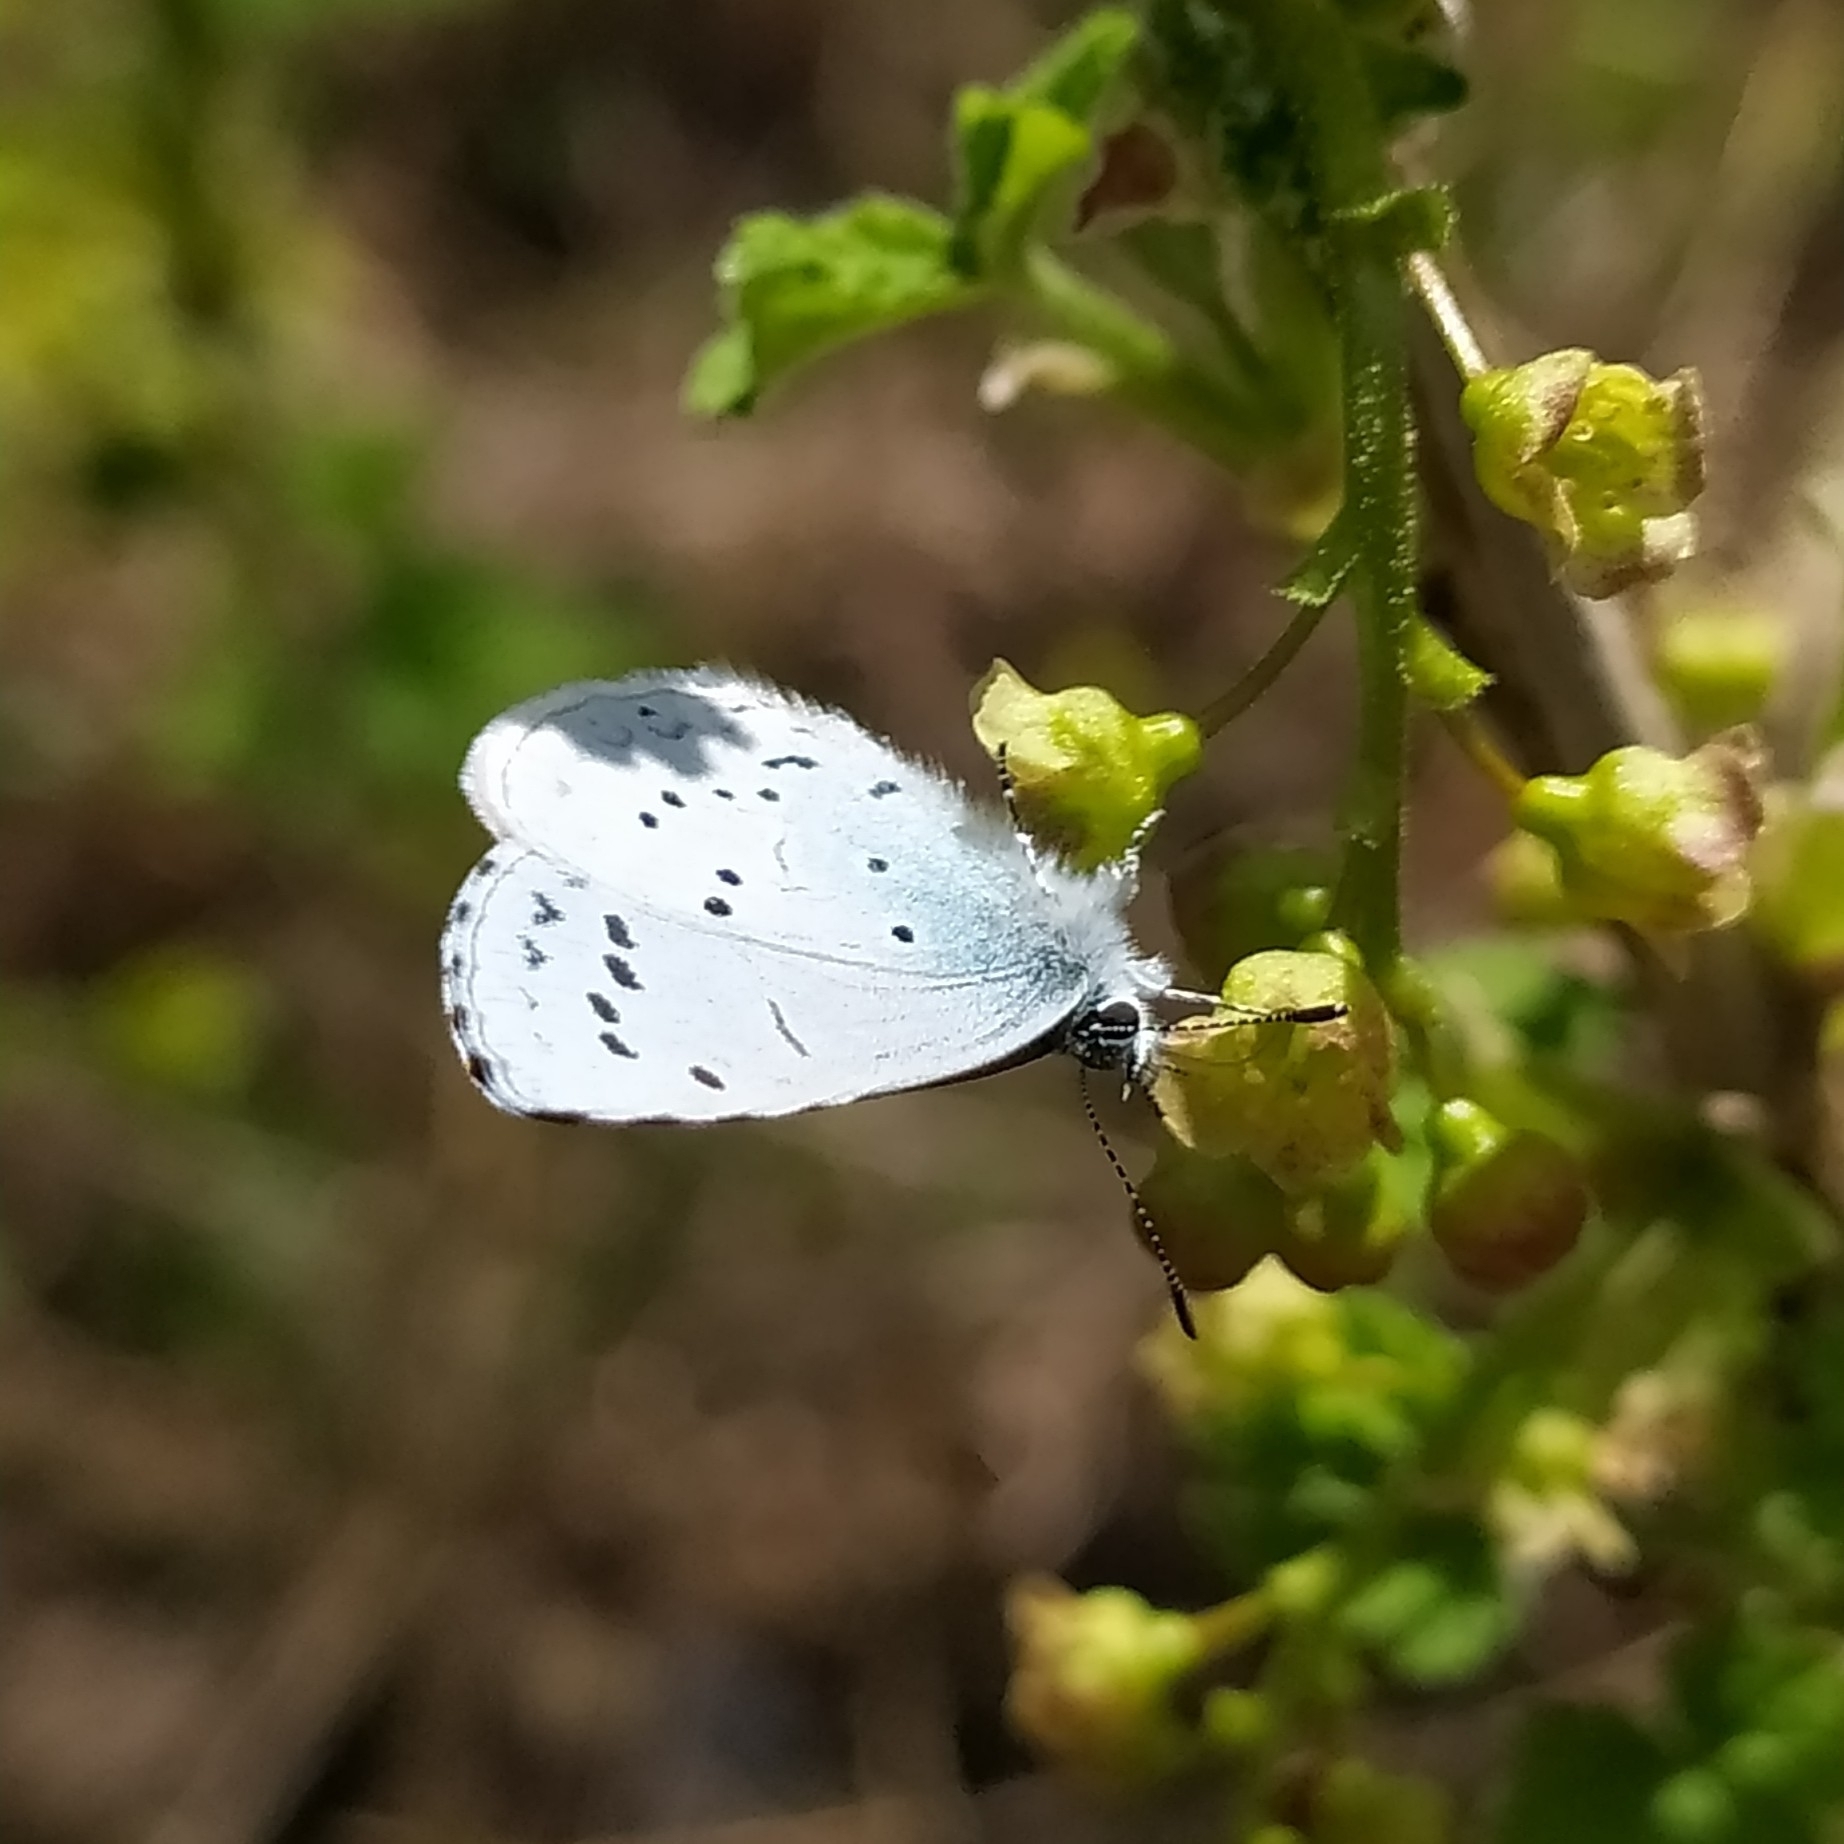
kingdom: Animalia
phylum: Arthropoda
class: Insecta
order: Lepidoptera
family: Lycaenidae
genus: Celastrina
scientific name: Celastrina argiolus
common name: Holly blue
